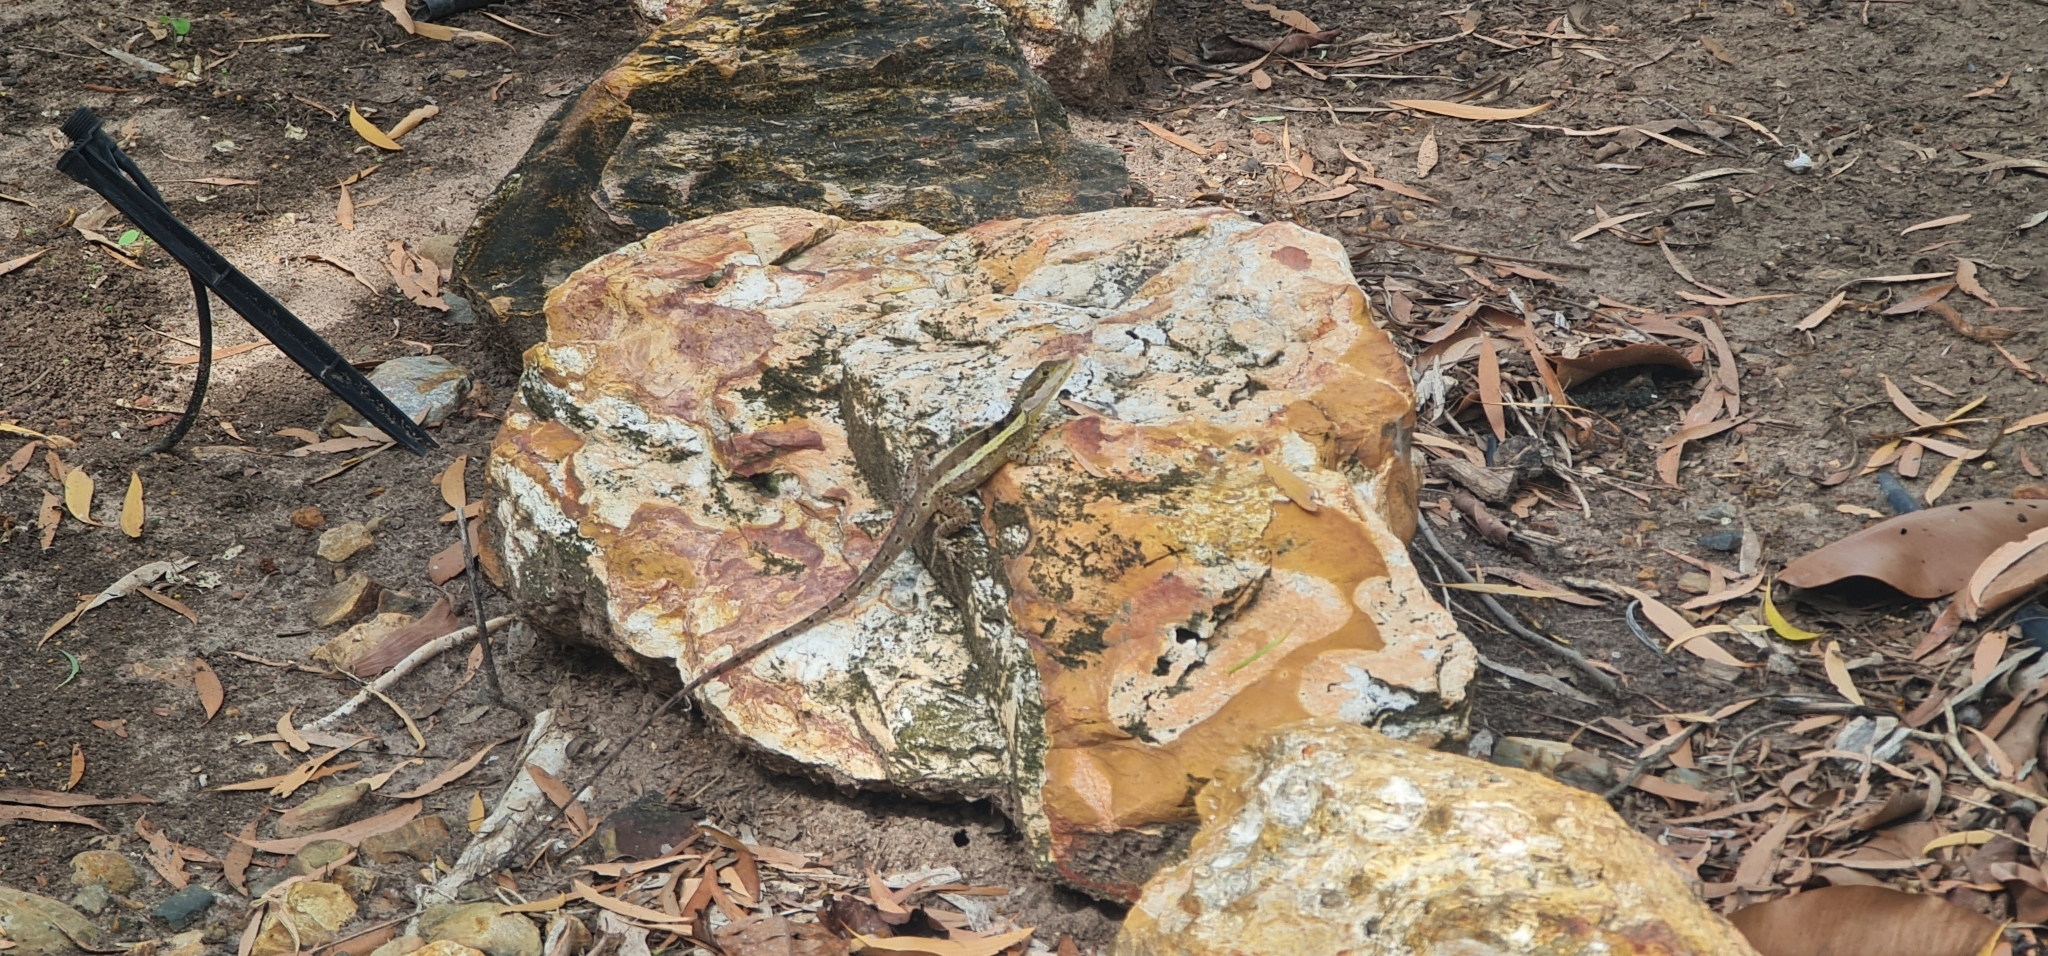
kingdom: Animalia
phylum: Chordata
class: Squamata
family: Agamidae
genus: Tropicagama
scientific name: Tropicagama temporalis
